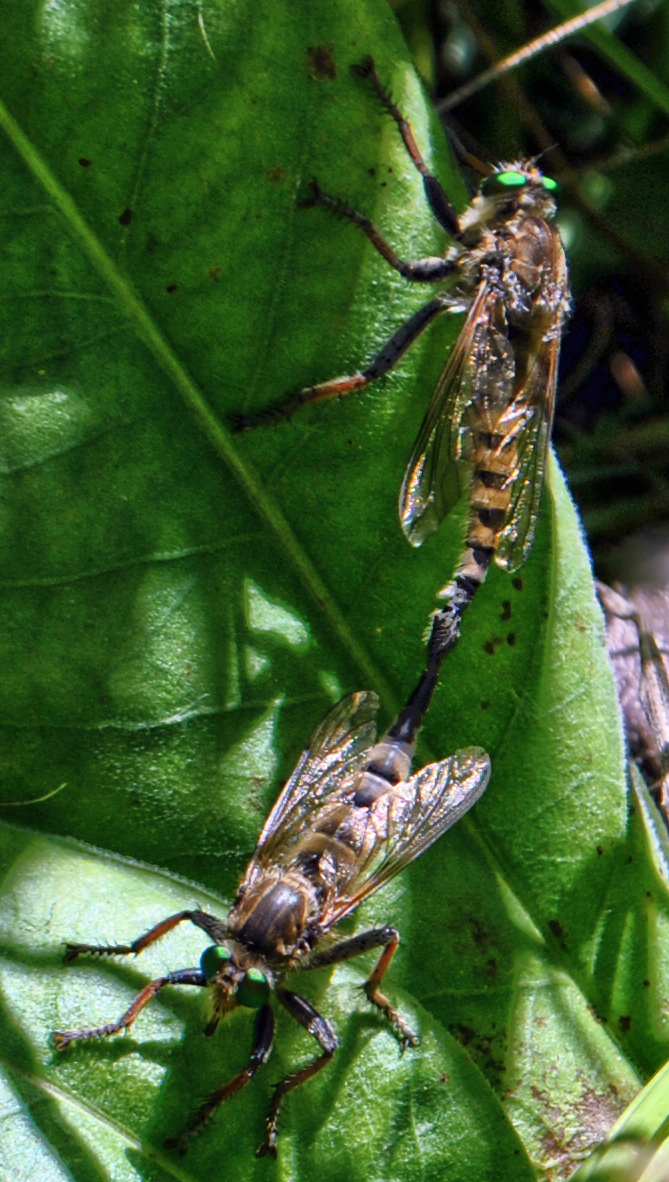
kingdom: Animalia
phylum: Arthropoda
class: Insecta
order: Diptera
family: Asilidae
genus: Promachus
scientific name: Promachus vertebratus
